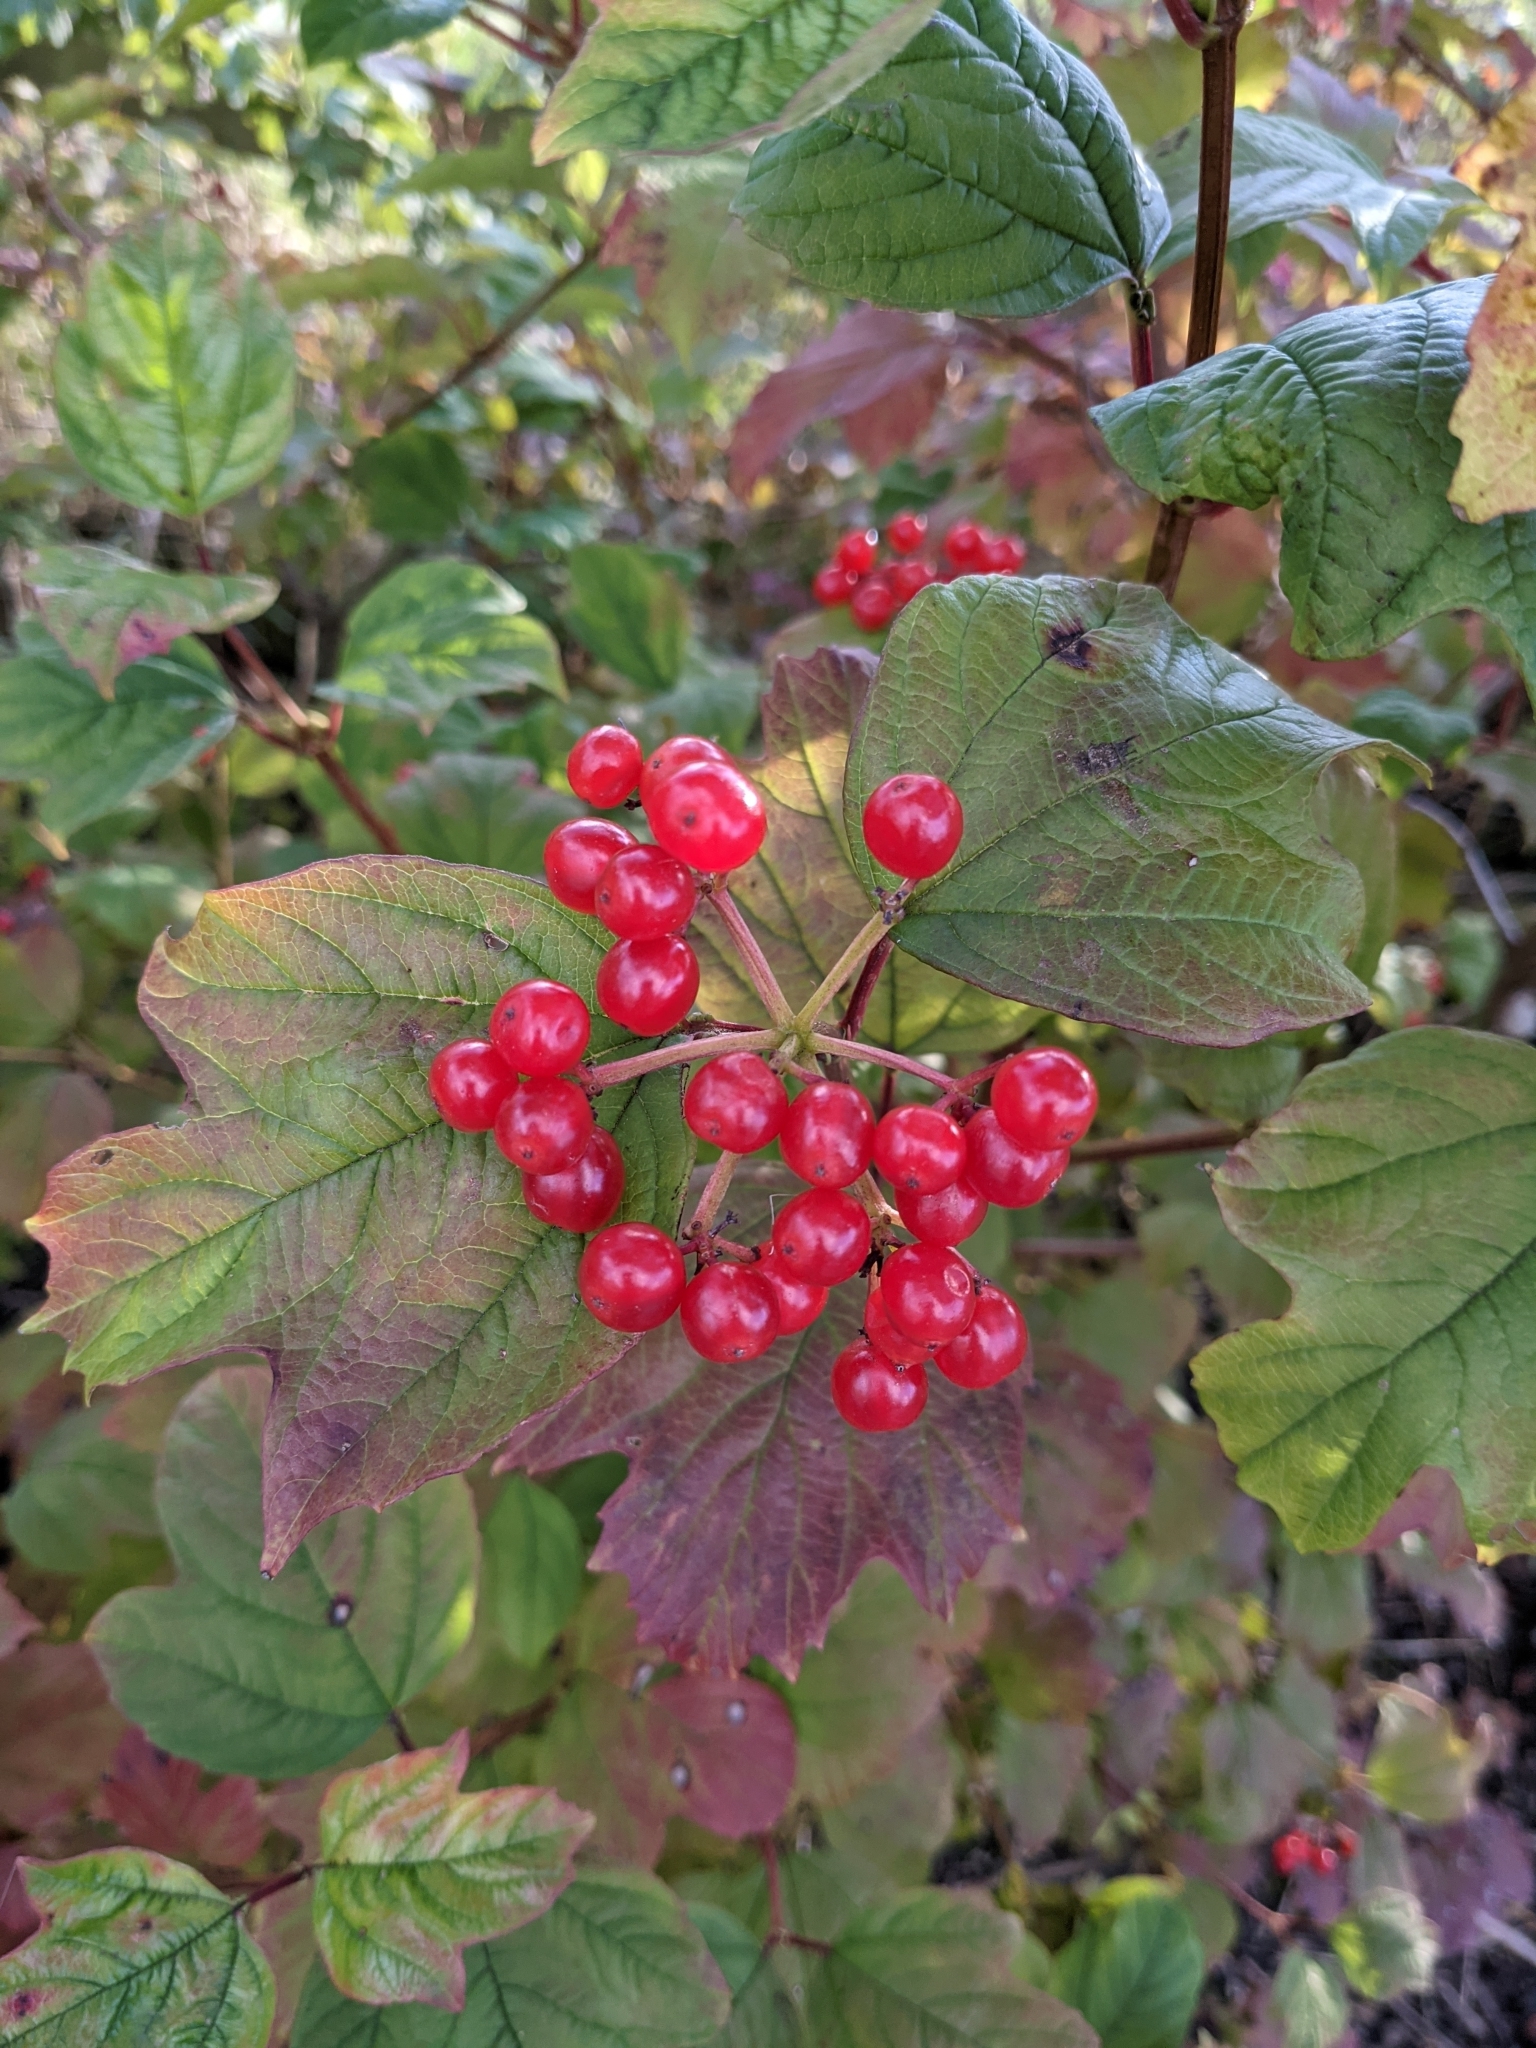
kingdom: Plantae
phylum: Tracheophyta
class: Magnoliopsida
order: Dipsacales
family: Viburnaceae
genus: Viburnum
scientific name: Viburnum opulus
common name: Guelder-rose
